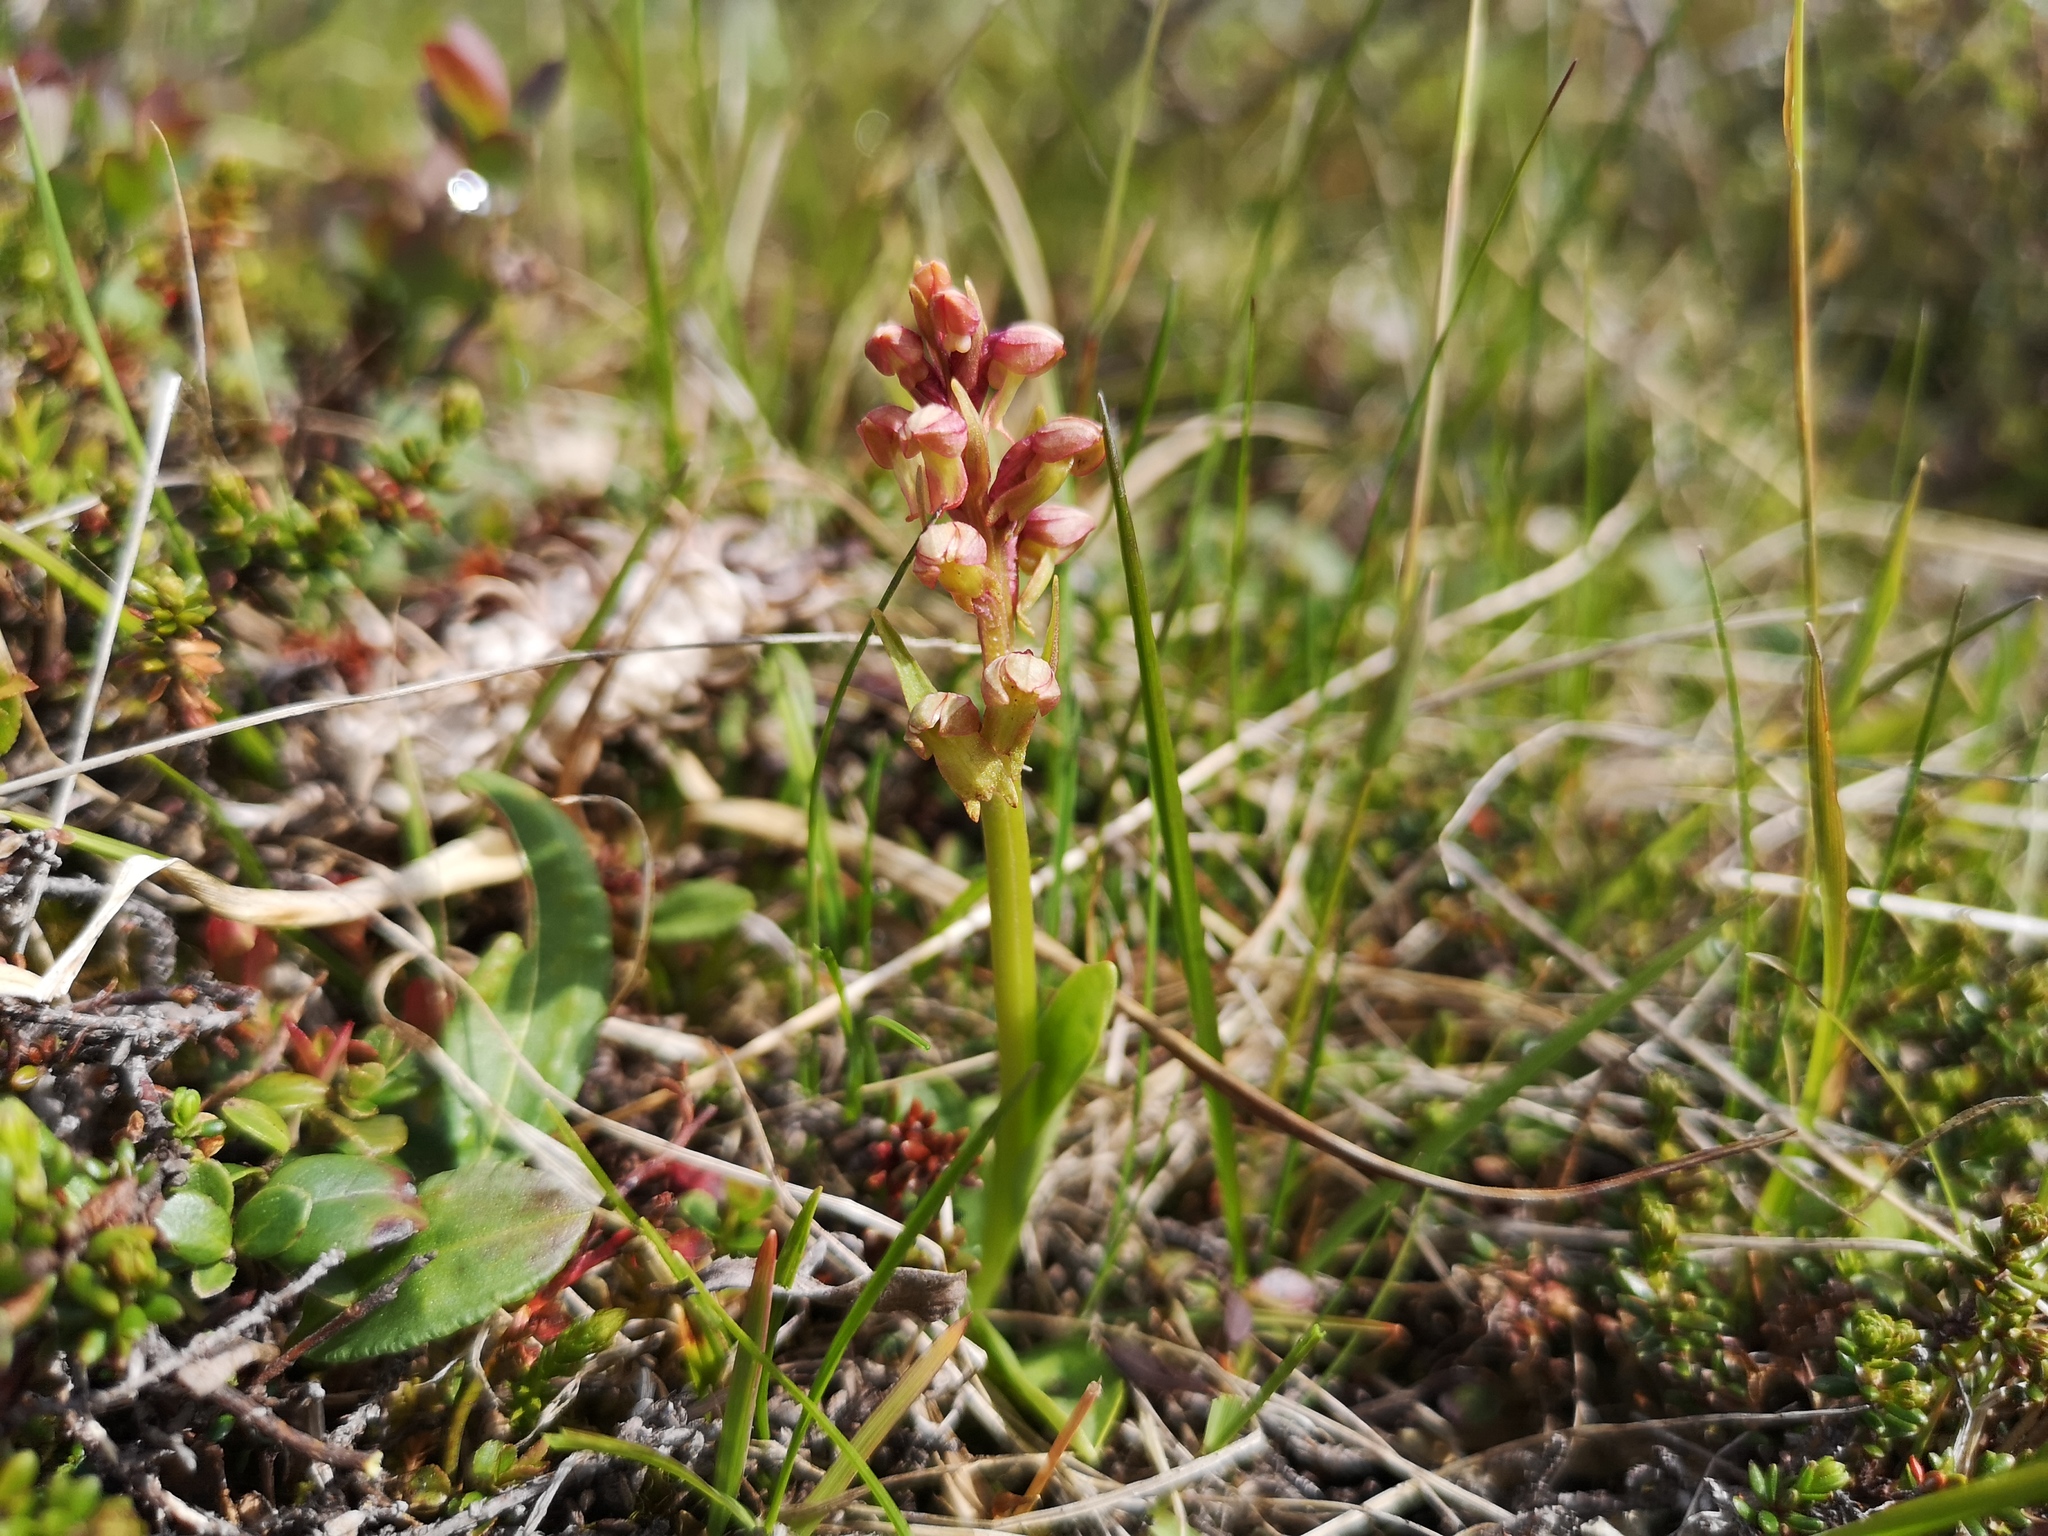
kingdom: Plantae
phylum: Tracheophyta
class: Liliopsida
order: Asparagales
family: Orchidaceae
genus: Dactylorhiza
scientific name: Dactylorhiza viridis
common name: Longbract frog orchid
